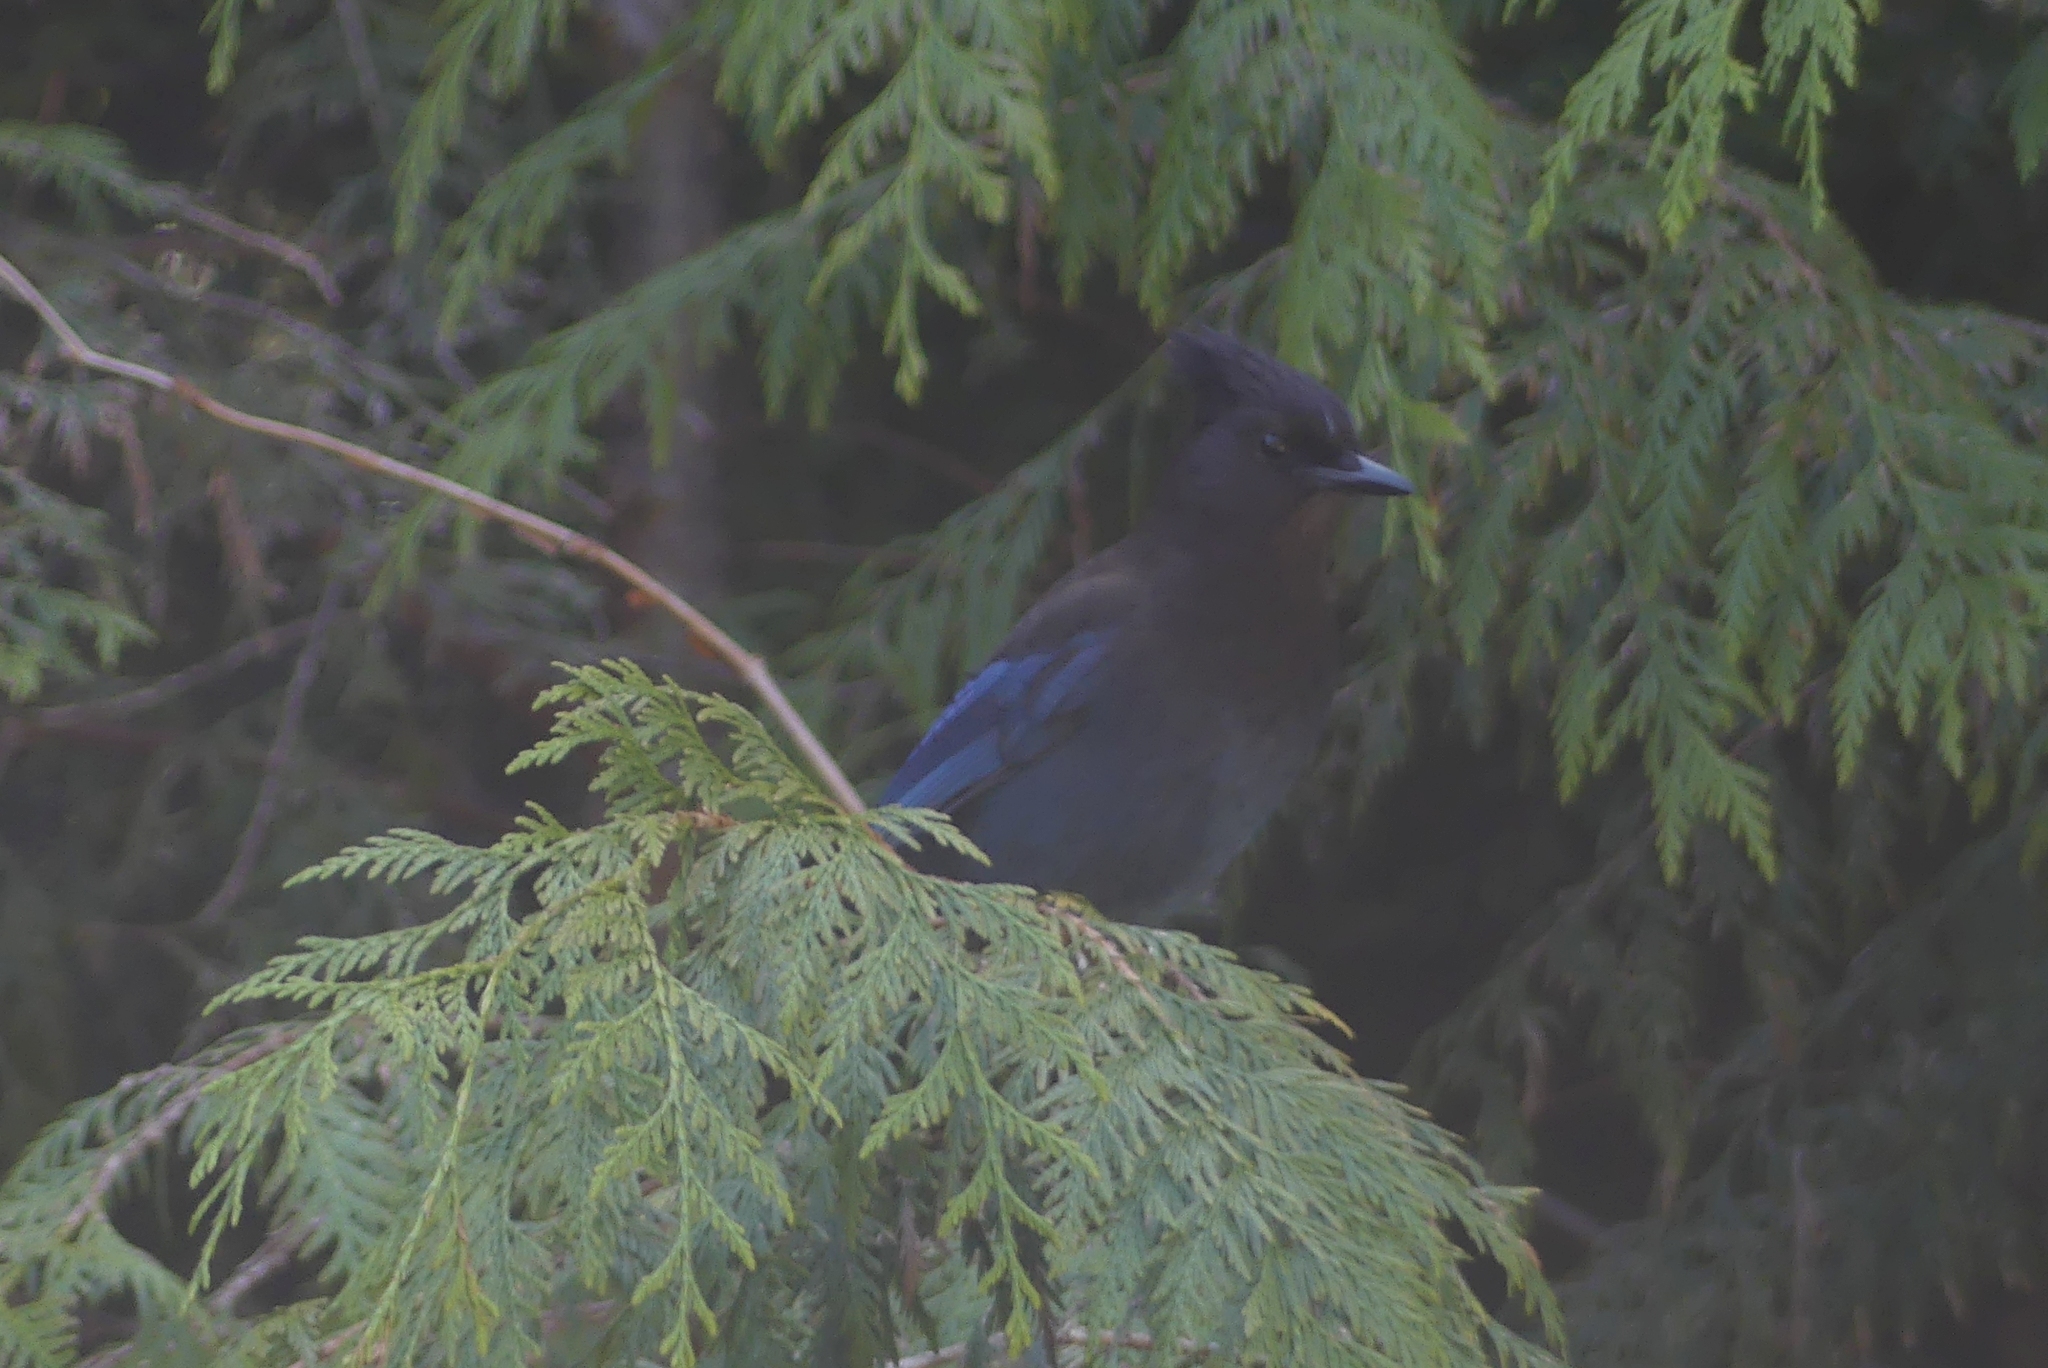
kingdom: Animalia
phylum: Chordata
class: Aves
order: Passeriformes
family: Corvidae
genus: Cyanocitta
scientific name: Cyanocitta stelleri
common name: Steller's jay
